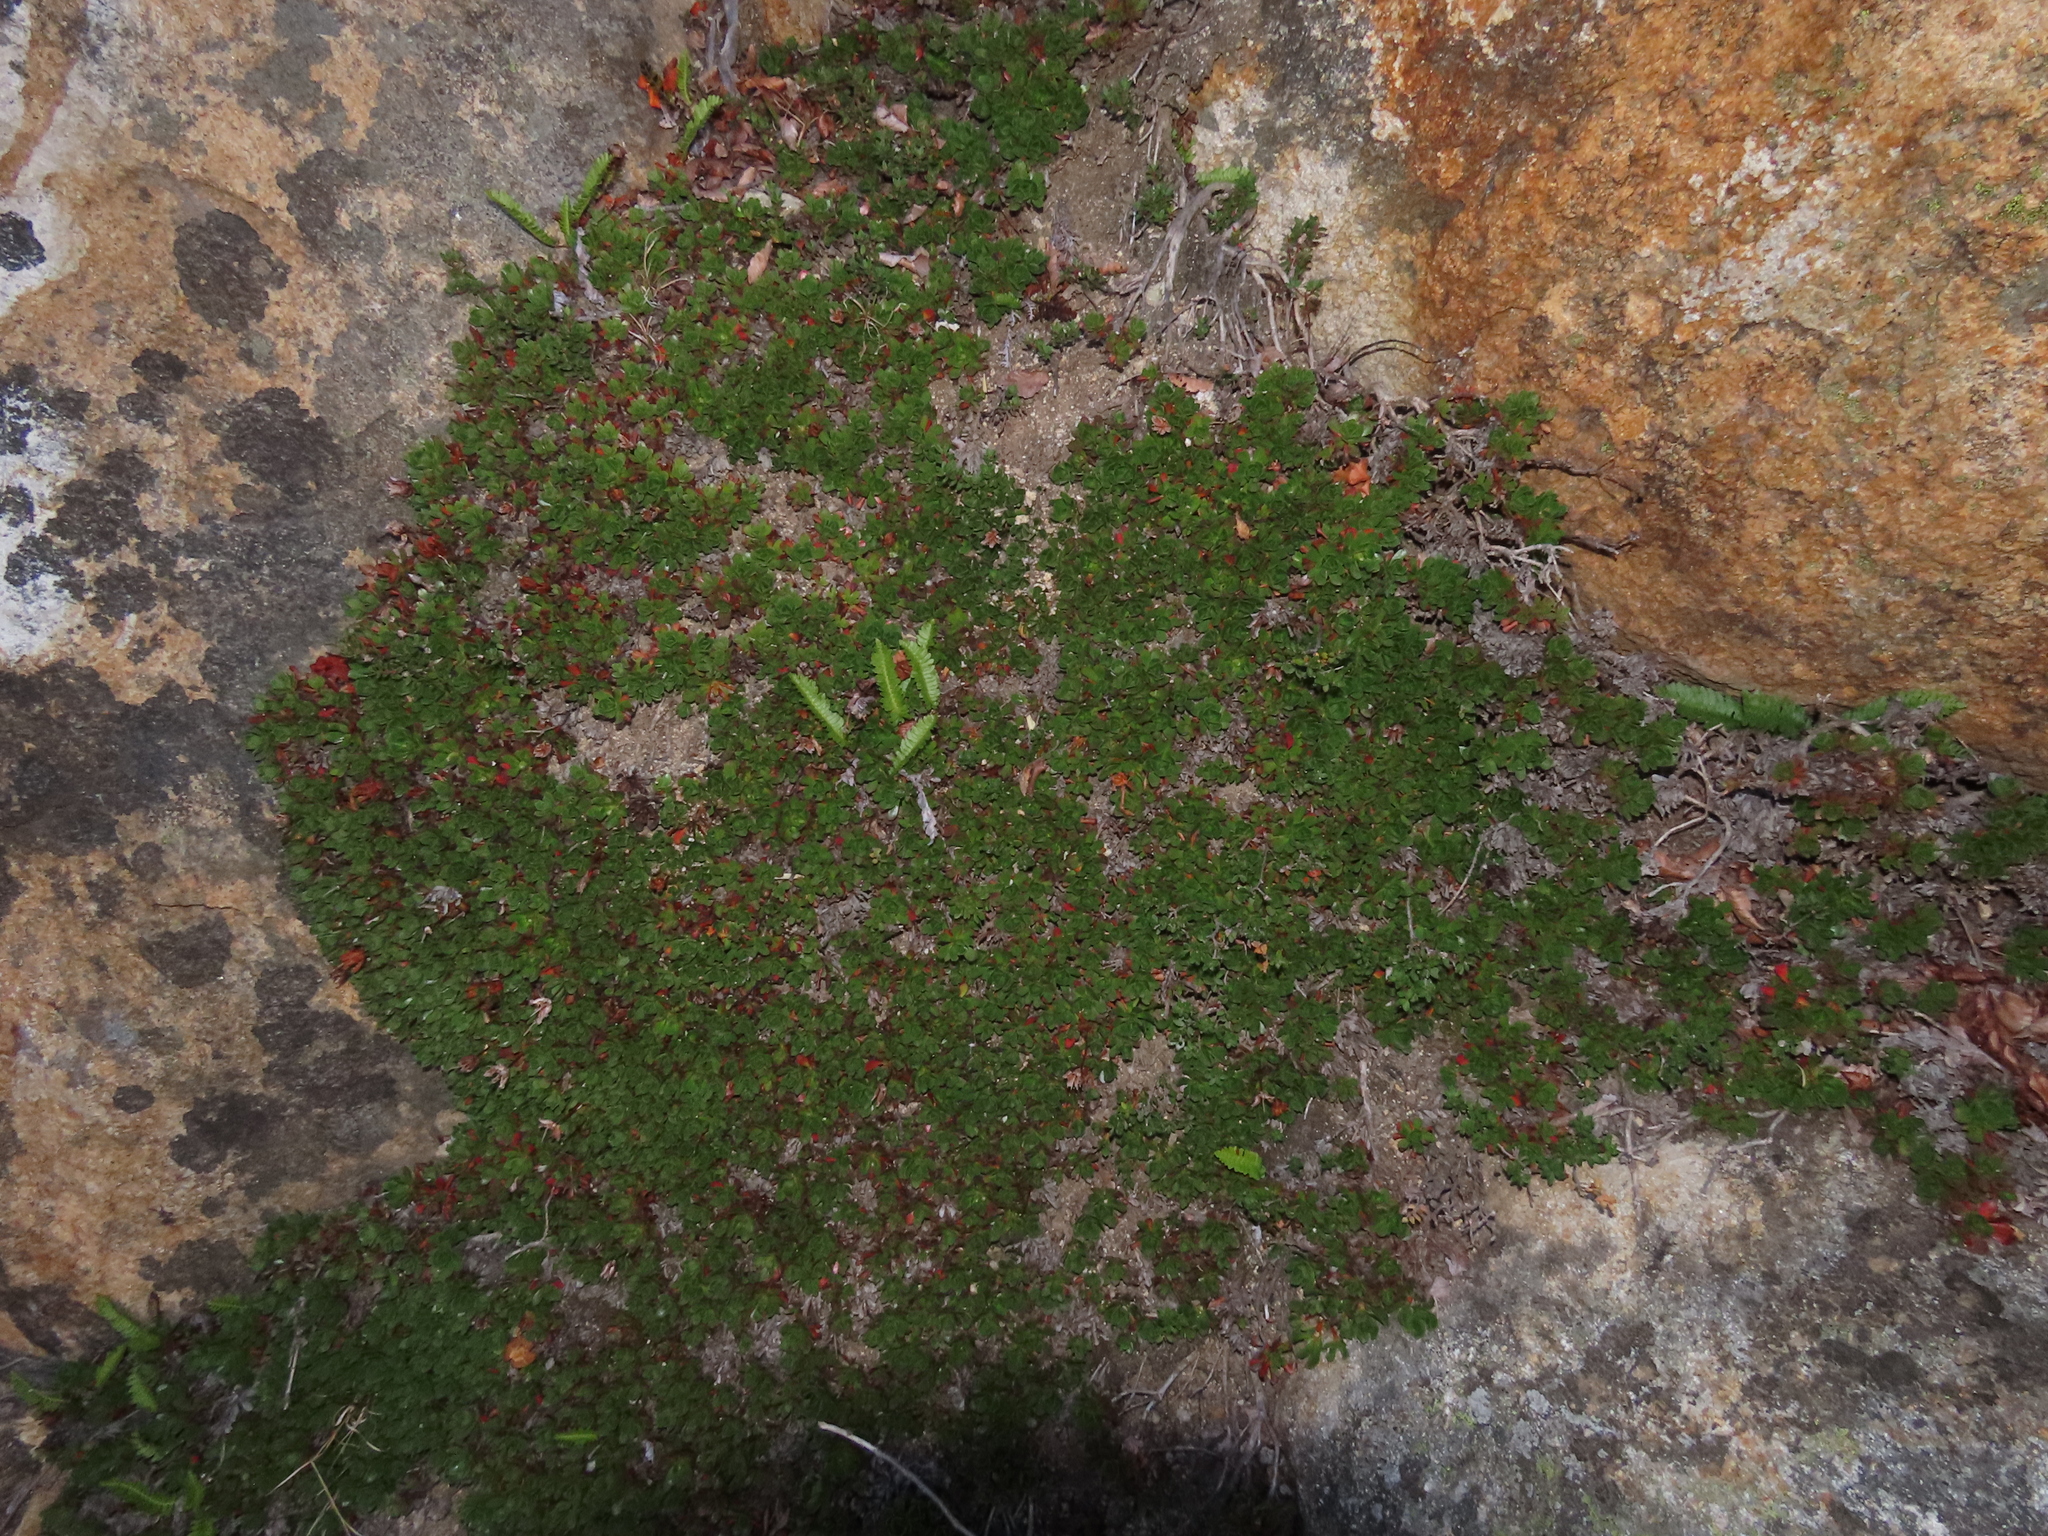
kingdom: Plantae
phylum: Tracheophyta
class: Magnoliopsida
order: Escalloniales
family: Escalloniaceae
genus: Rayenia
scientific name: Rayenia malalcurensis
